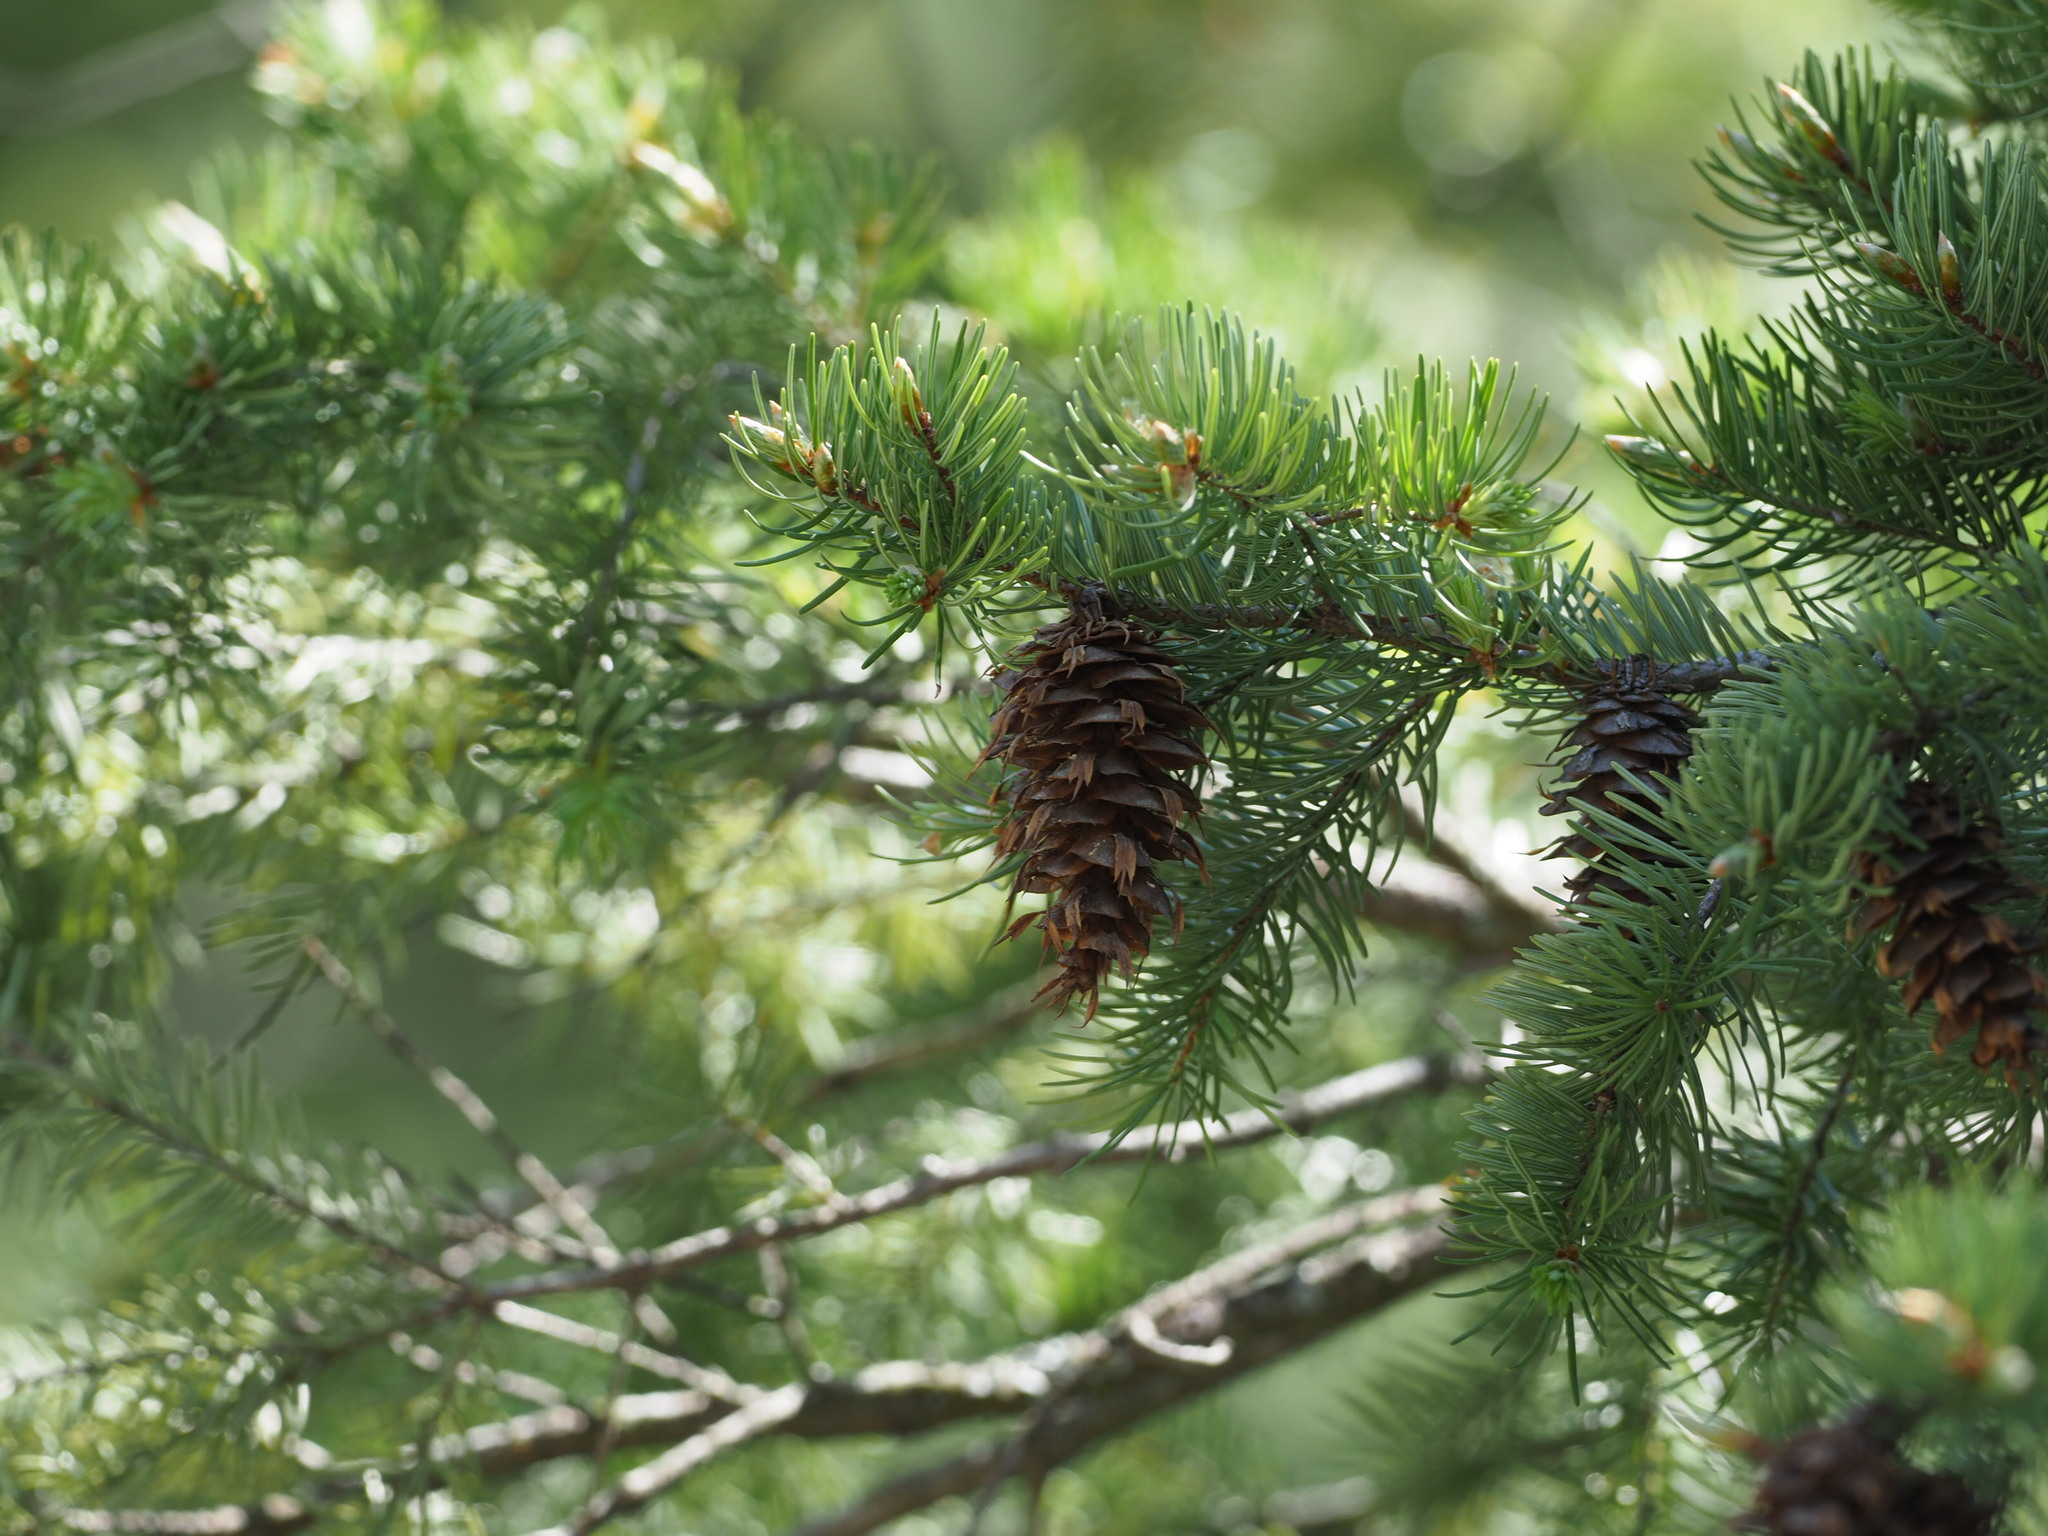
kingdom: Plantae
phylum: Tracheophyta
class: Pinopsida
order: Pinales
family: Pinaceae
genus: Pseudotsuga
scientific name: Pseudotsuga menziesii
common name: Douglas fir
